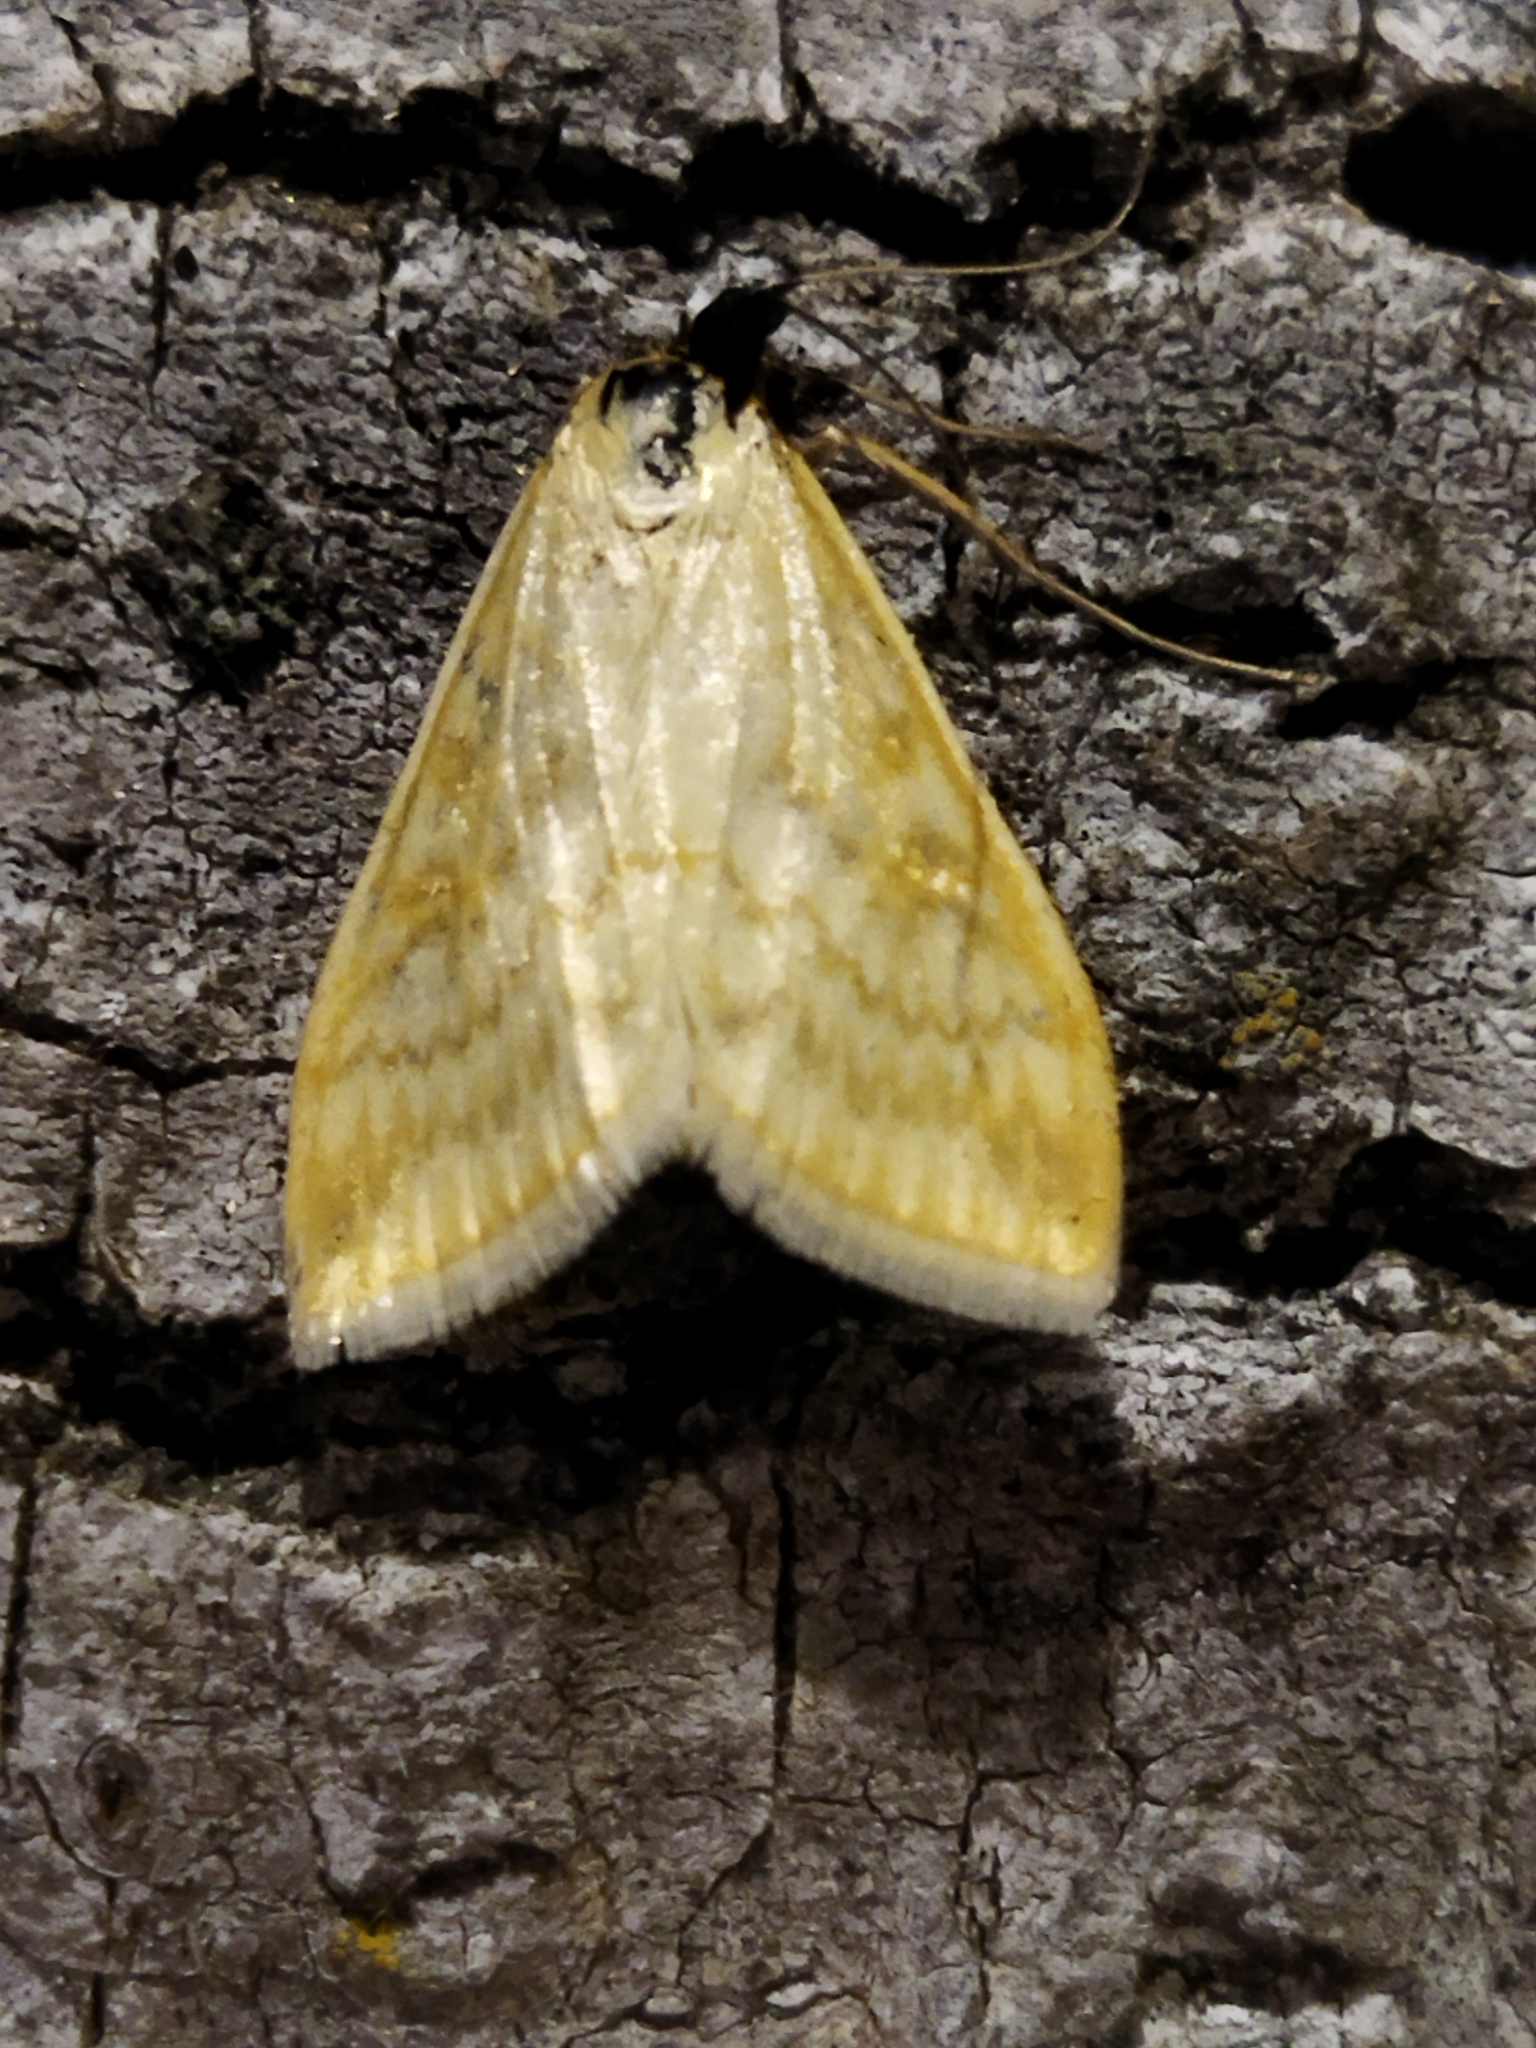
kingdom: Animalia
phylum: Arthropoda
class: Insecta
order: Lepidoptera
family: Crambidae
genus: Sitochroa
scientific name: Sitochroa verticalis
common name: Lesser pearl
